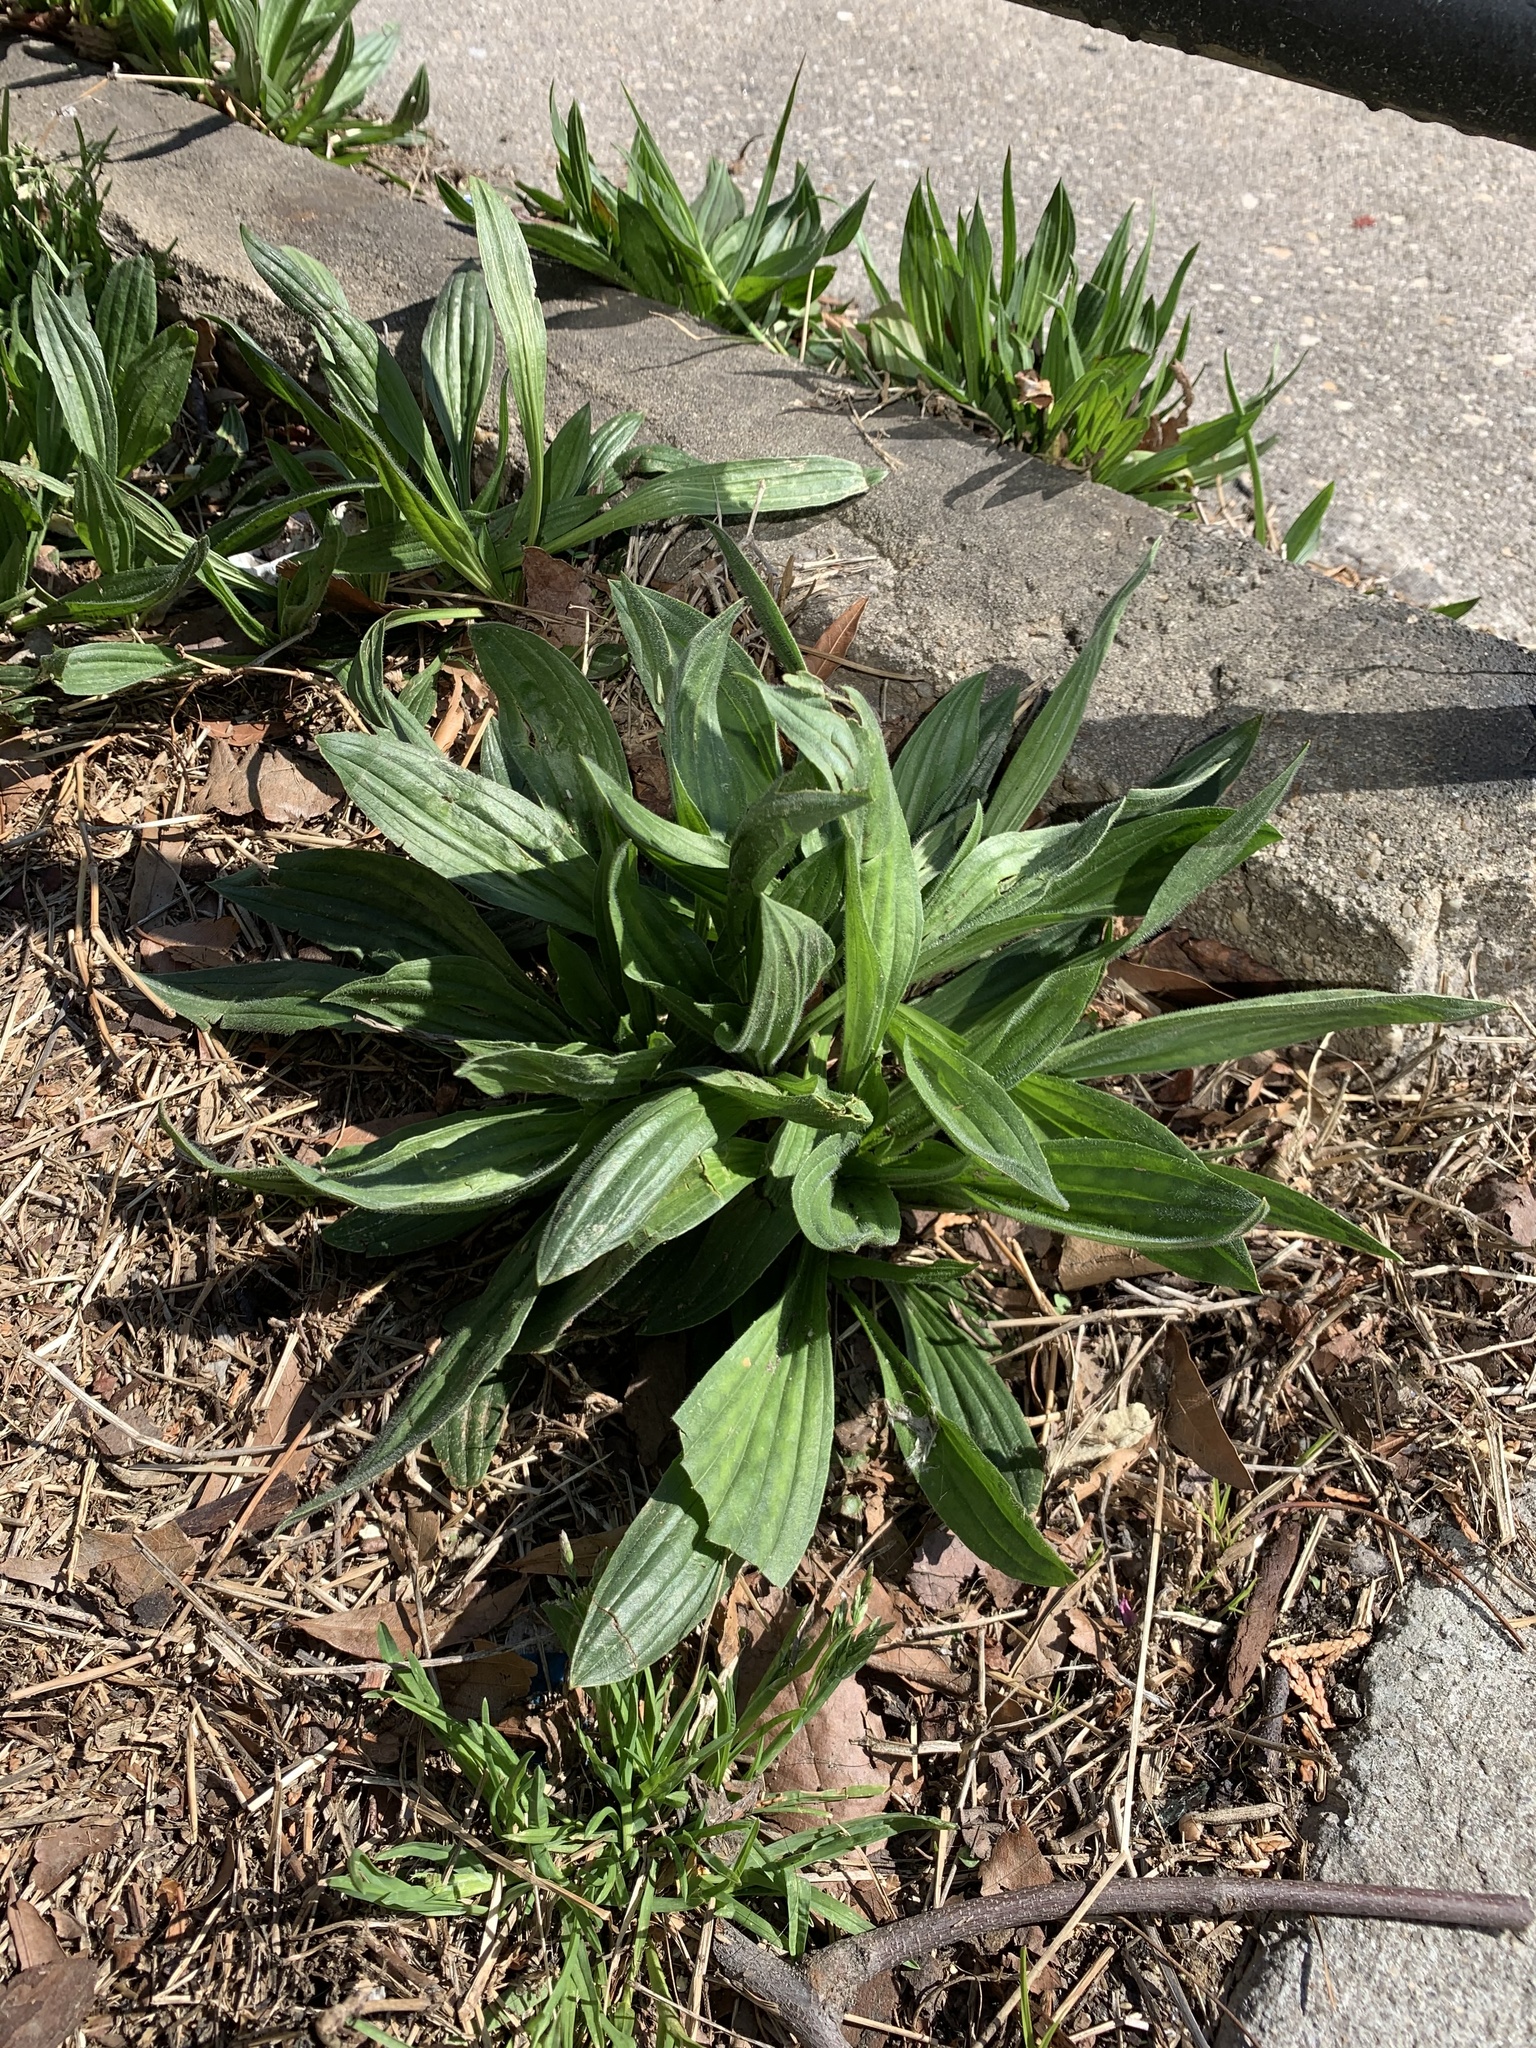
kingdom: Plantae
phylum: Tracheophyta
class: Magnoliopsida
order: Lamiales
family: Plantaginaceae
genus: Plantago
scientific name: Plantago lanceolata
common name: Ribwort plantain
